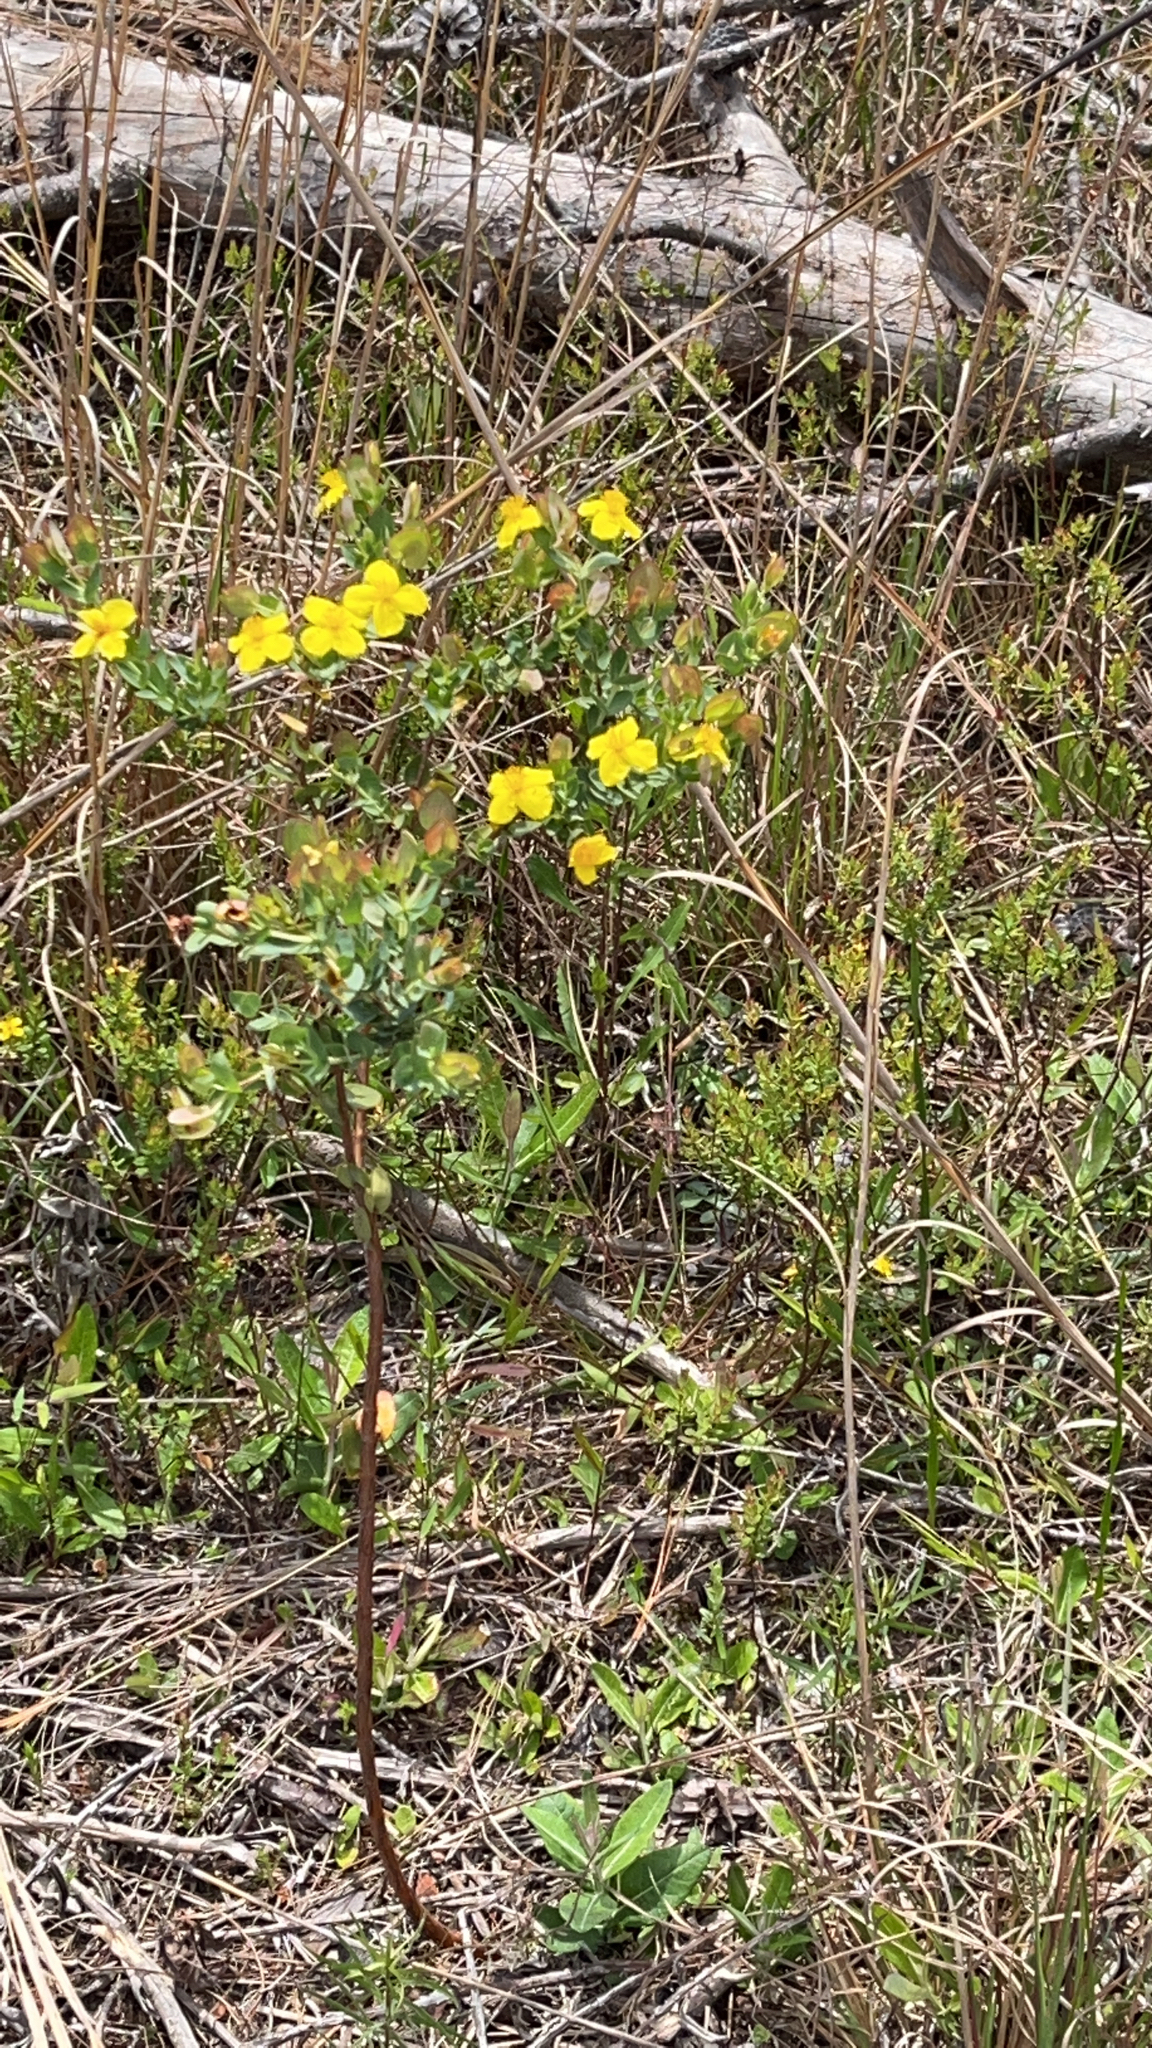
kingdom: Plantae
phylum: Tracheophyta
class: Magnoliopsida
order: Malpighiales
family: Hypericaceae
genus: Hypericum
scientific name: Hypericum tetrapetalum
